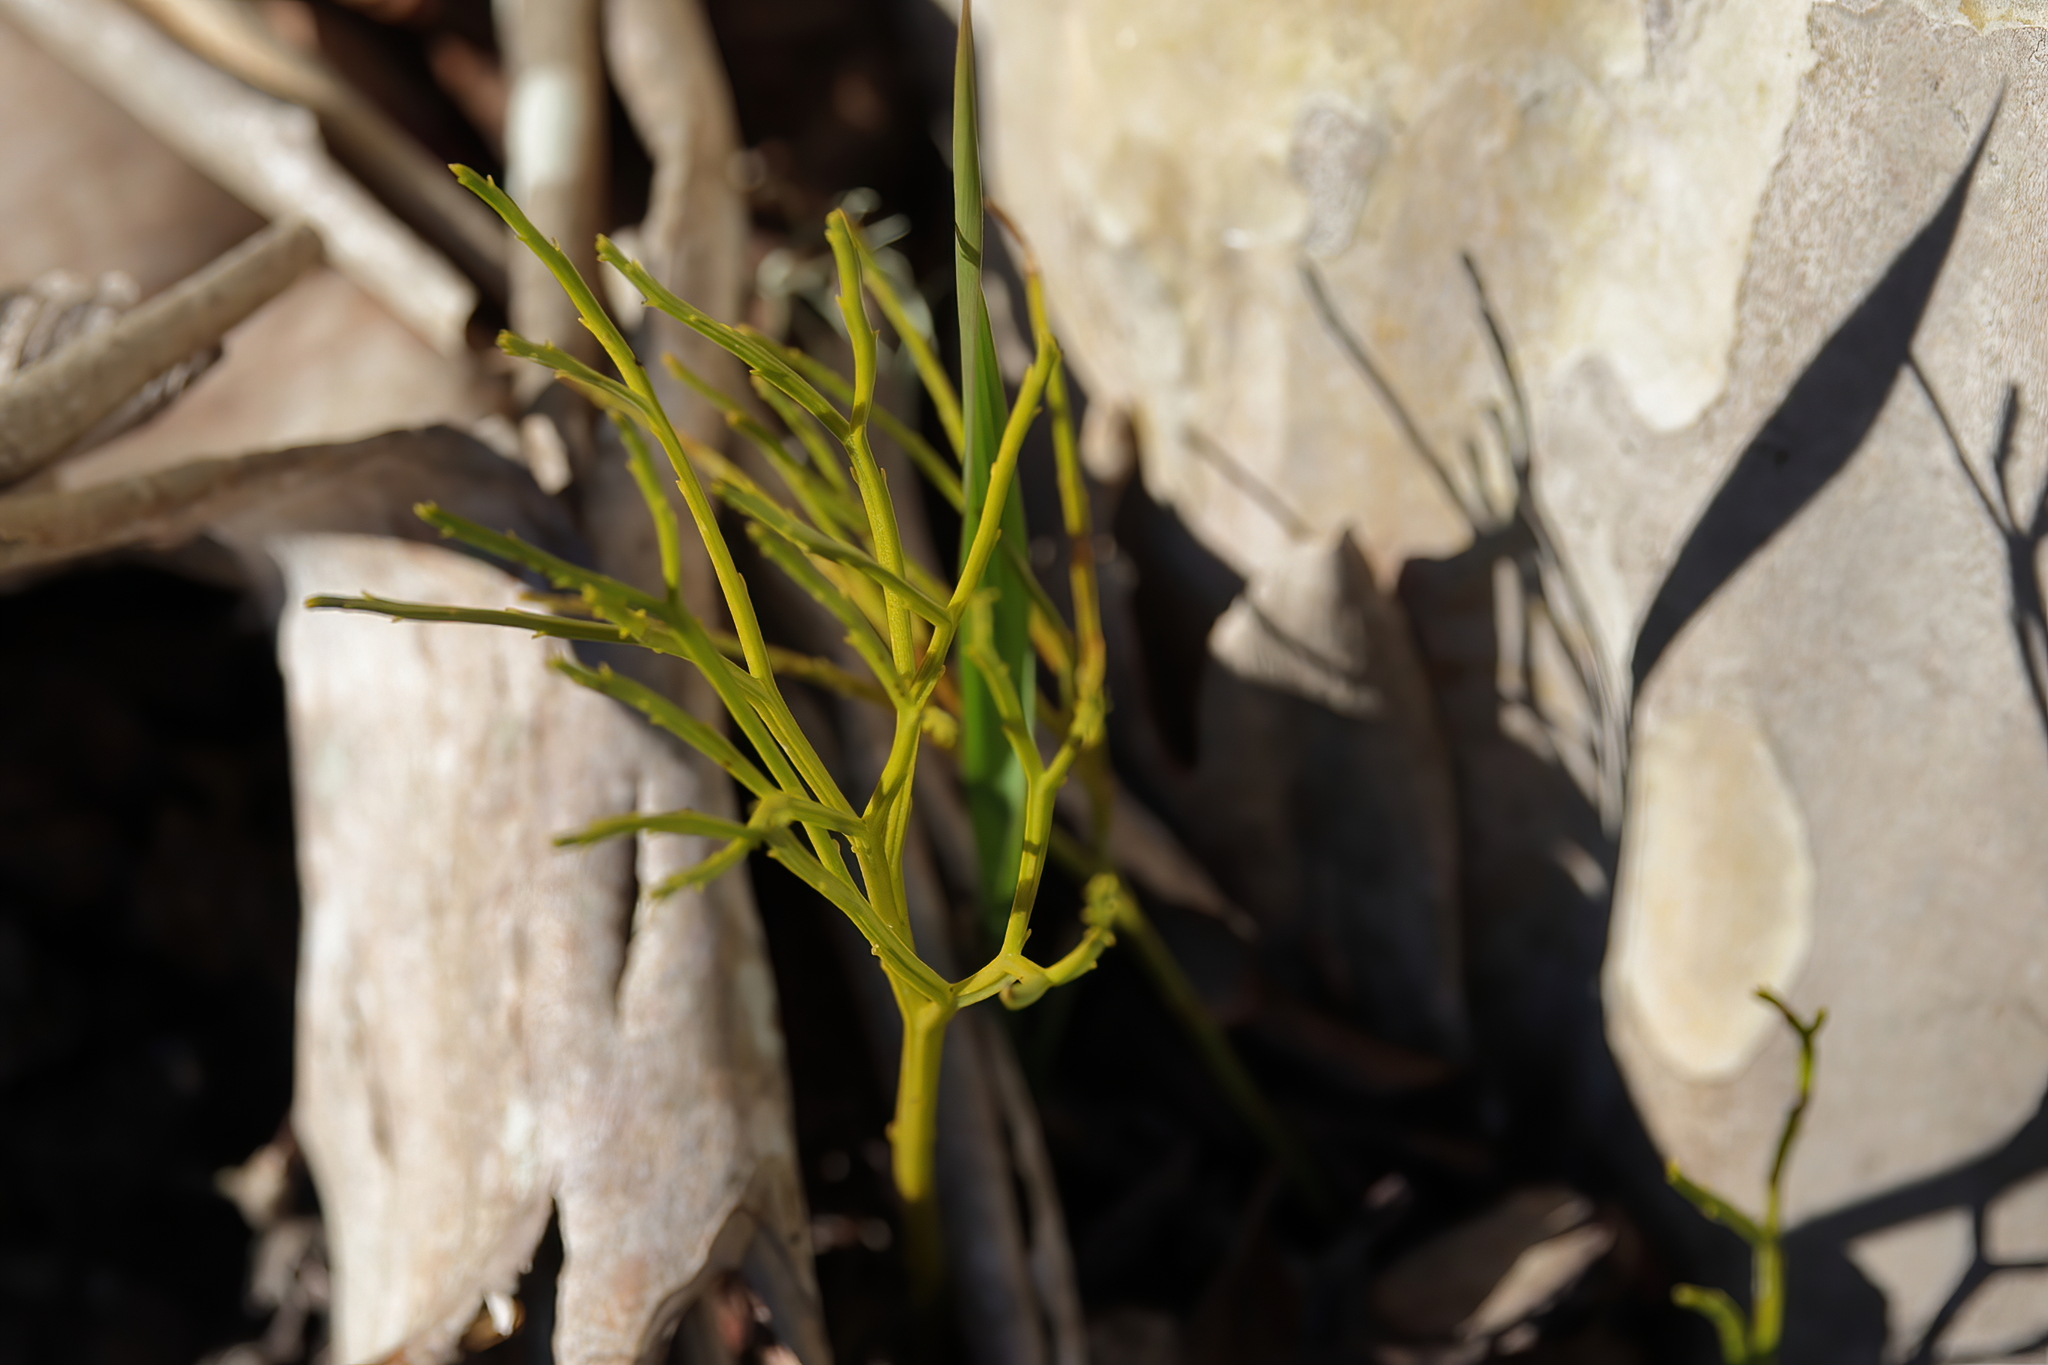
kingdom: Plantae
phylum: Tracheophyta
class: Polypodiopsida
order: Psilotales
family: Psilotaceae
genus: Psilotum
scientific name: Psilotum nudum
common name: Skeleton fork fern
